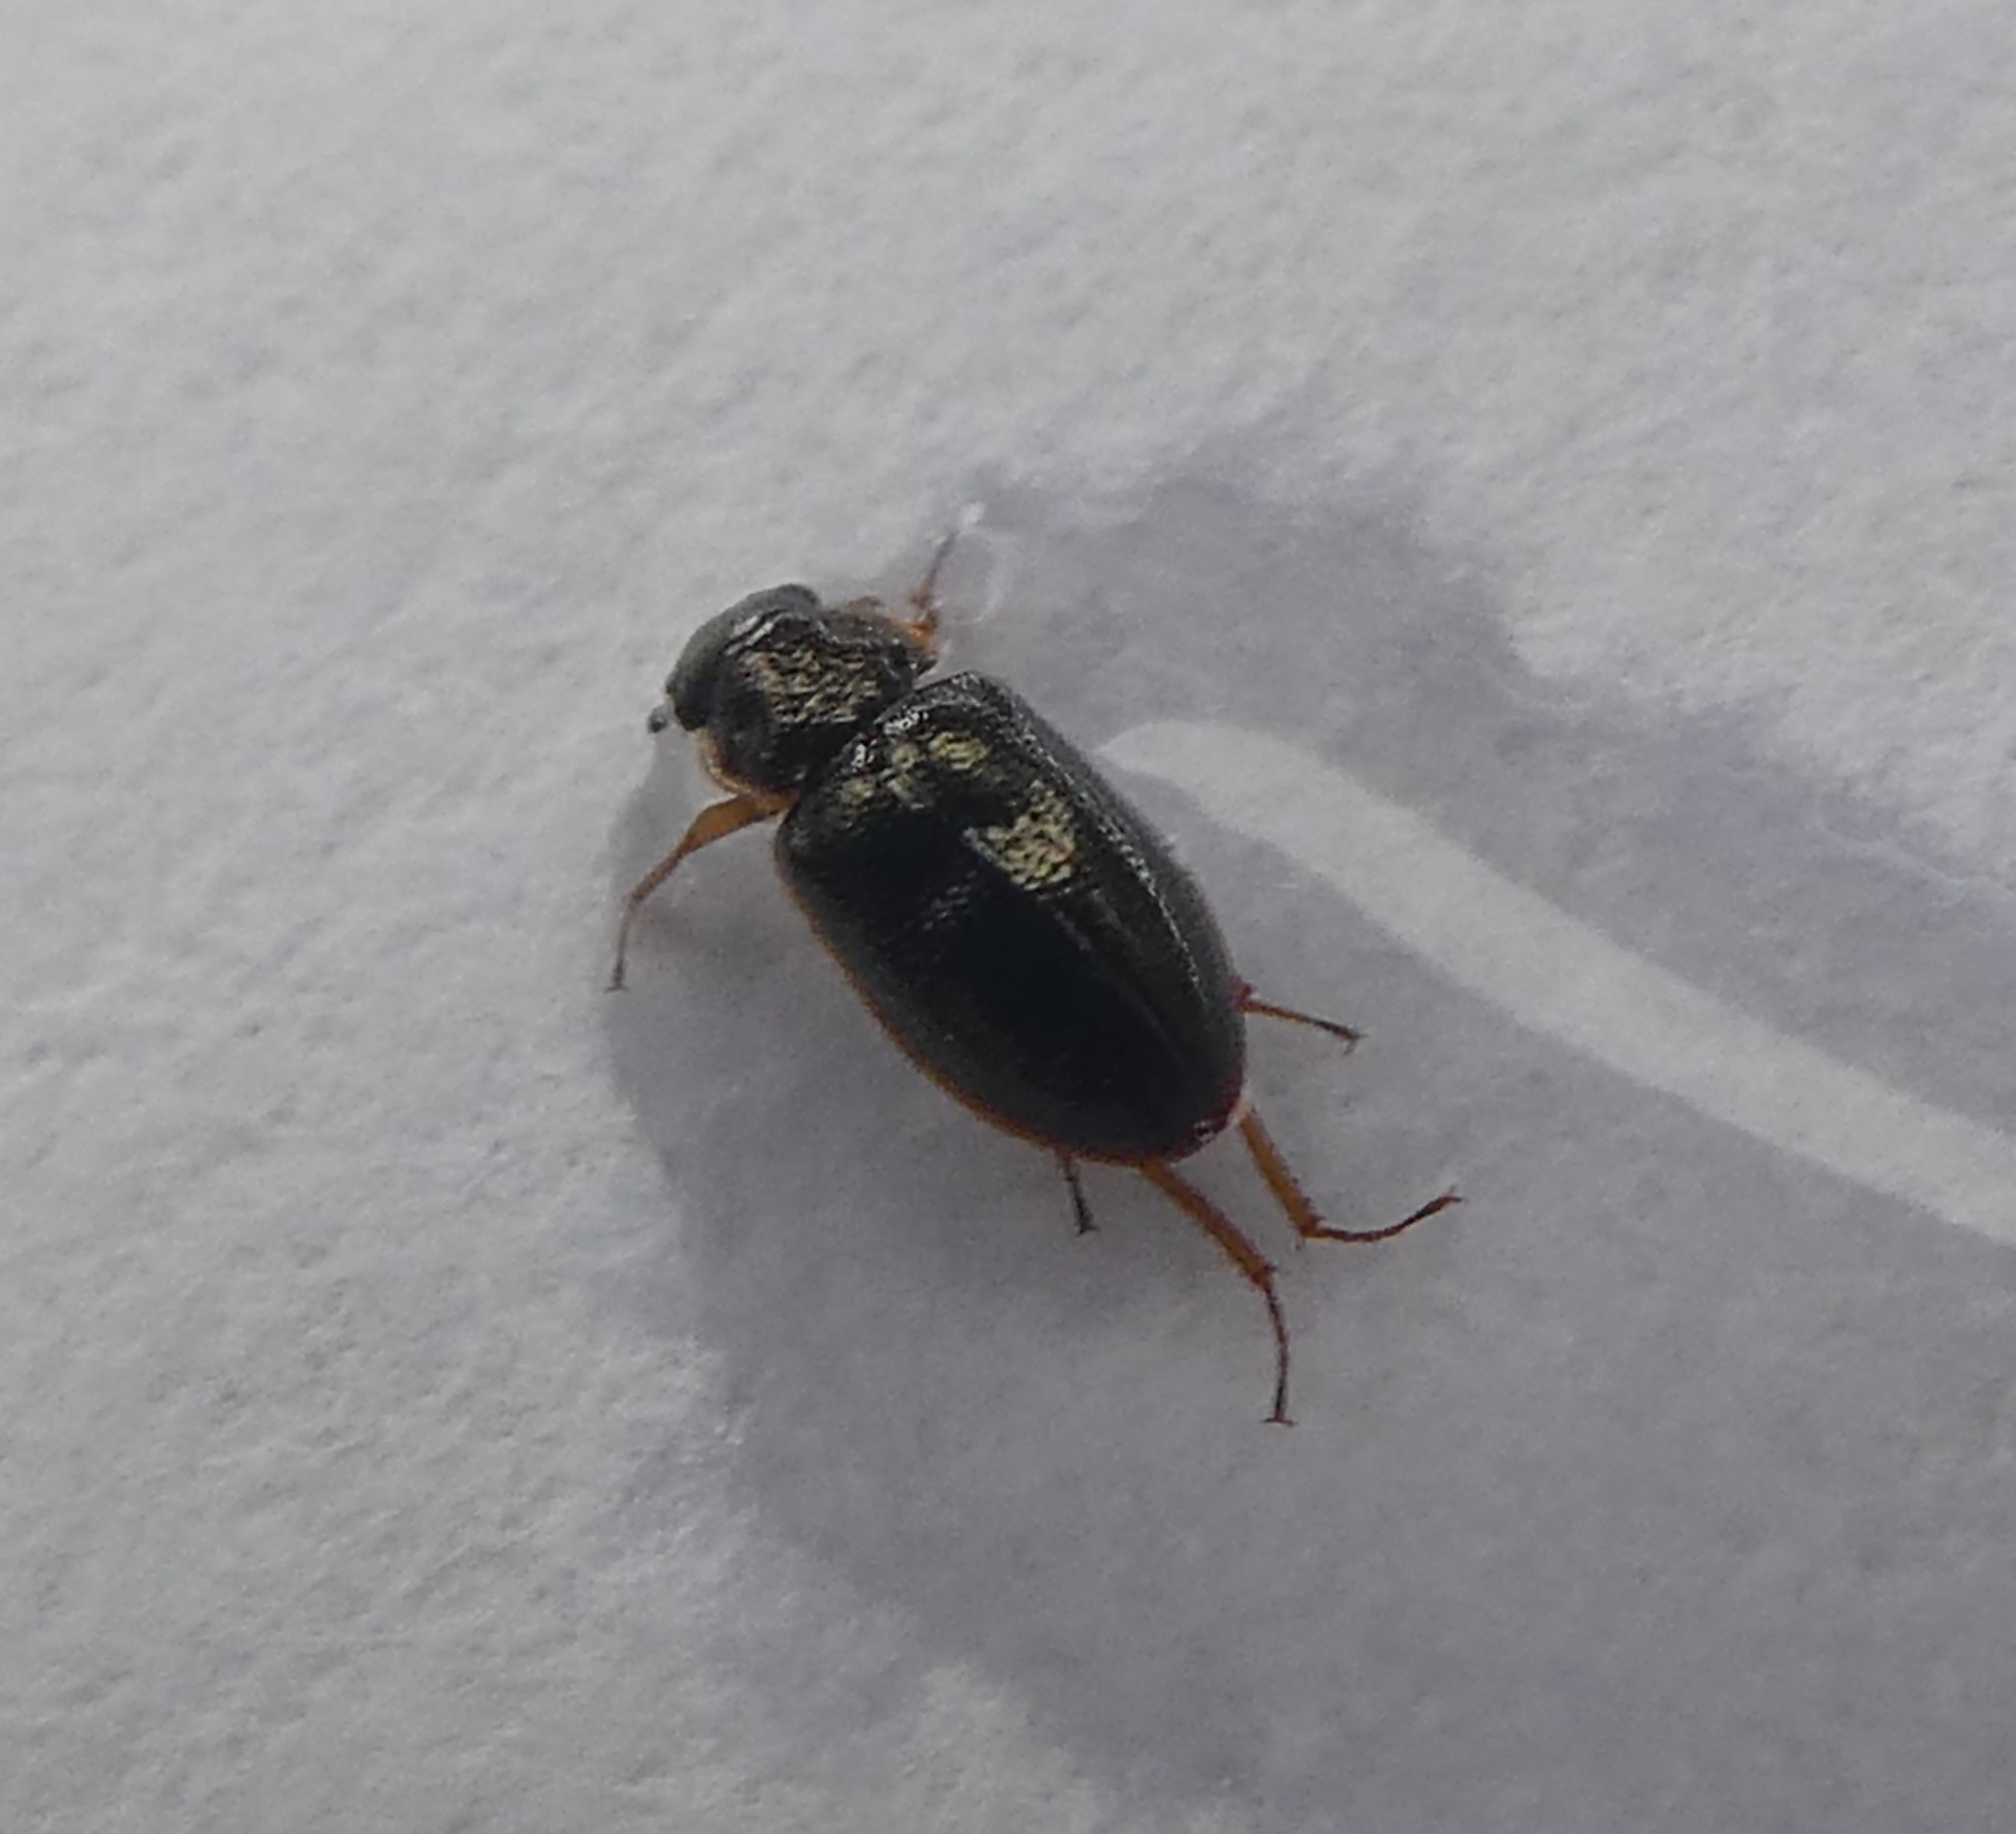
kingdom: Animalia
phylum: Arthropoda
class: Insecta
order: Coleoptera
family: Hydrophilidae
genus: Horelophus
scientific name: Horelophus walkeri
